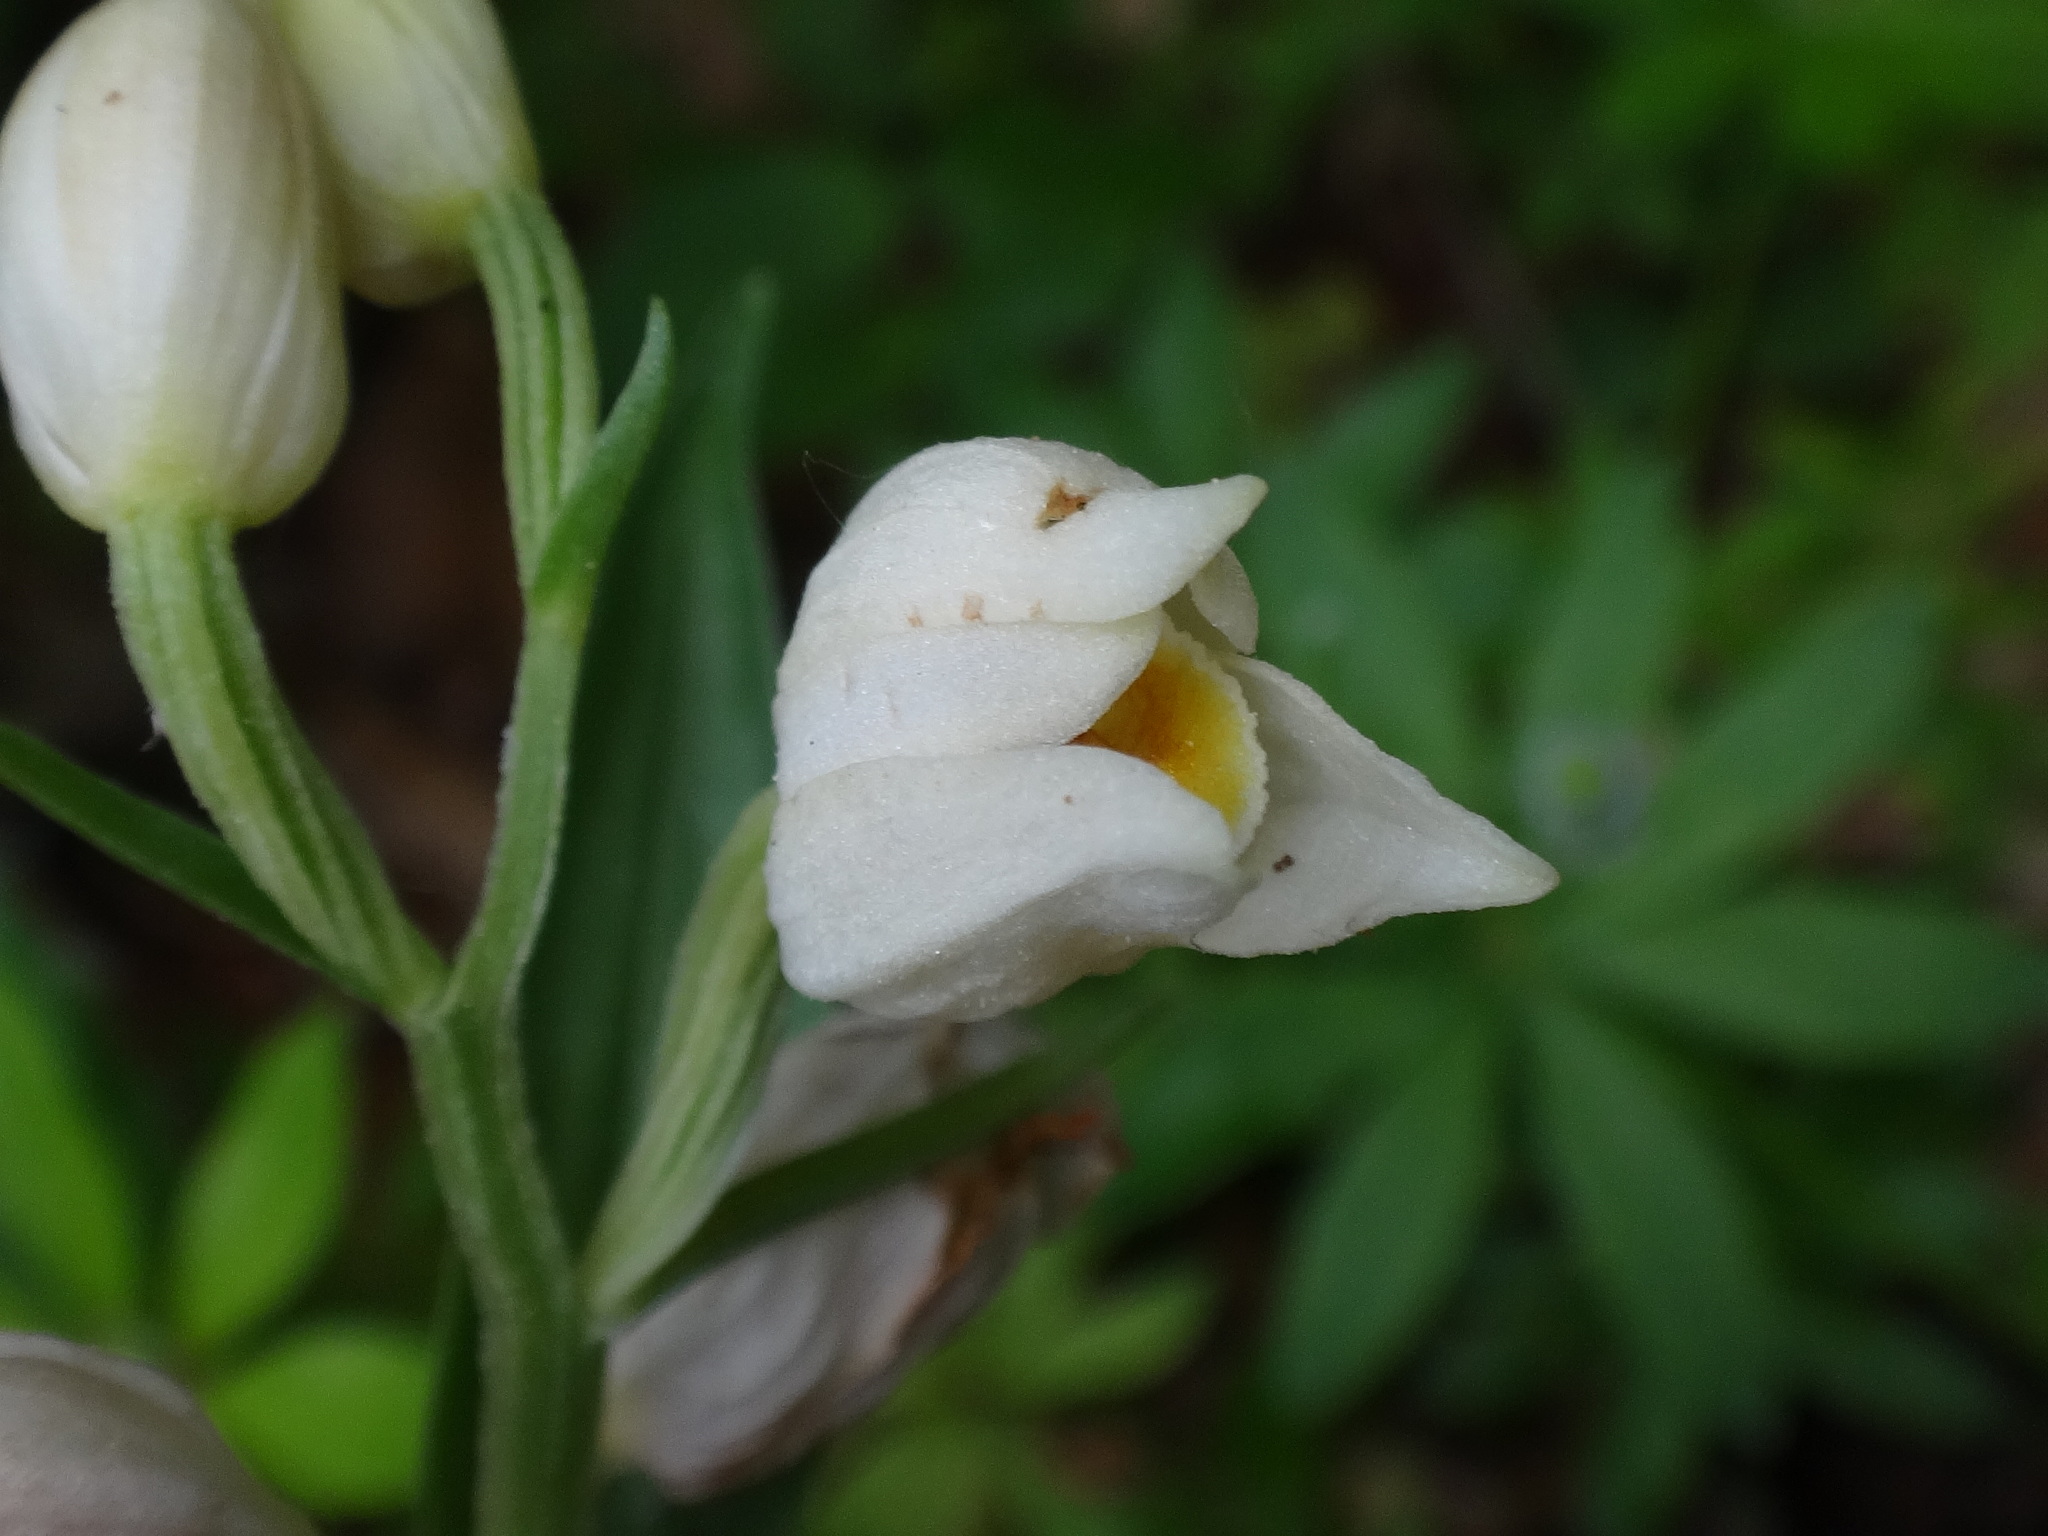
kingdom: Plantae
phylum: Tracheophyta
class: Liliopsida
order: Asparagales
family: Orchidaceae
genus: Cephalanthera
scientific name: Cephalanthera damasonium
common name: White helleborine
